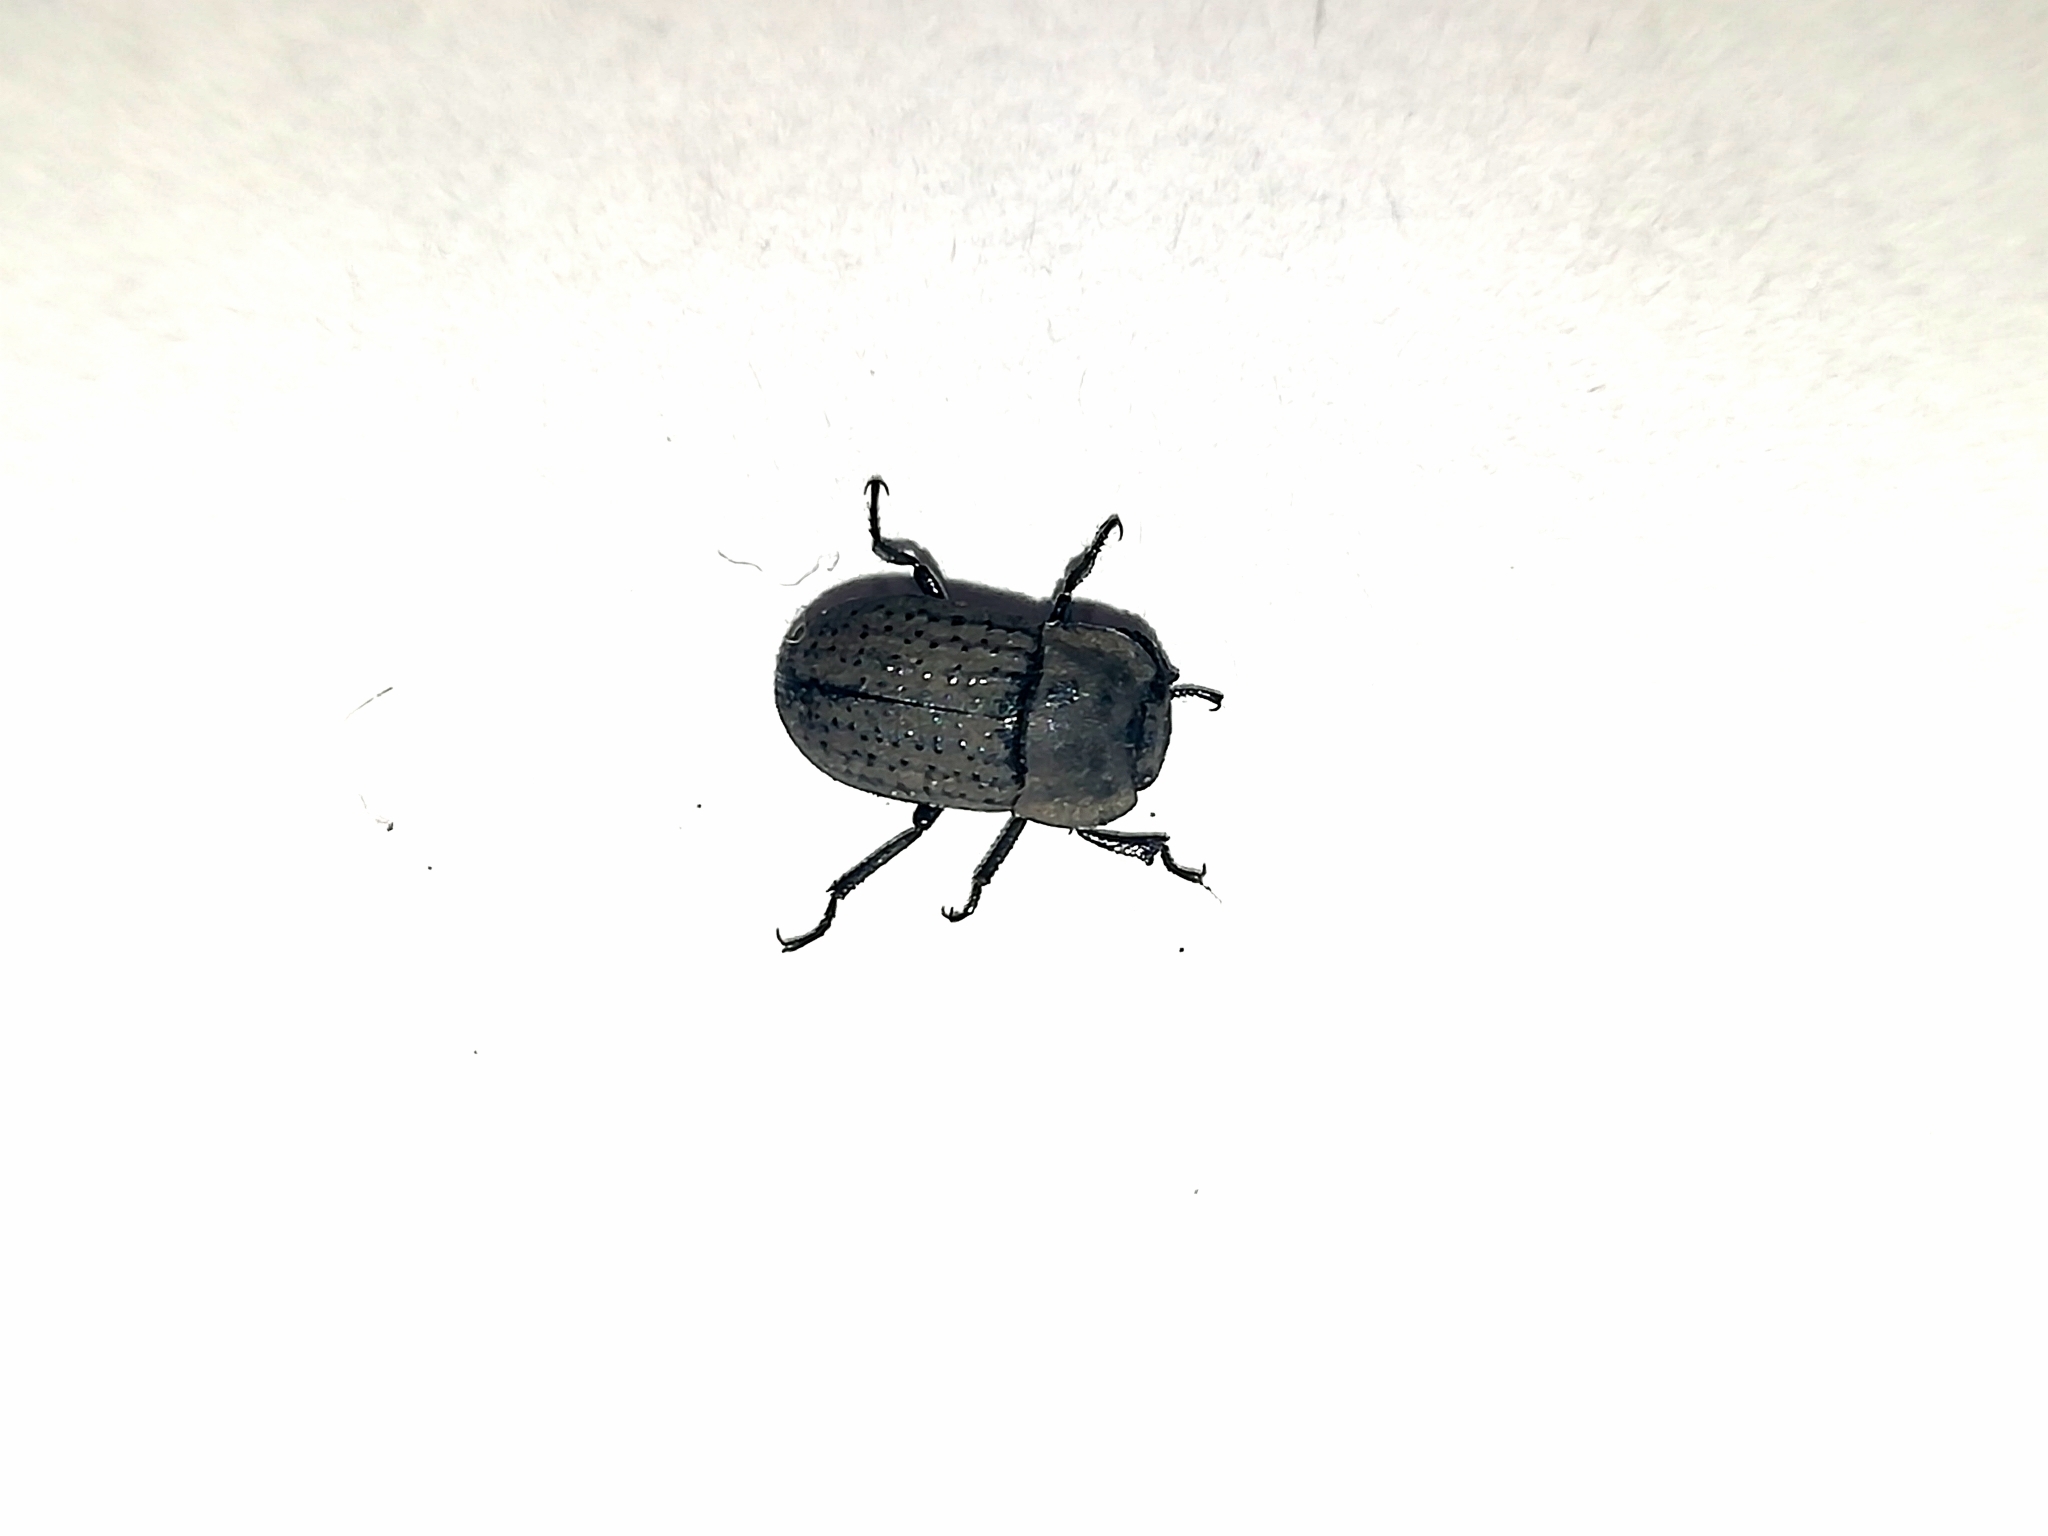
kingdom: Animalia
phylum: Arthropoda
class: Insecta
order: Coleoptera
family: Tenebrionidae
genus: Opatrum
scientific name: Opatrum sabulosum
